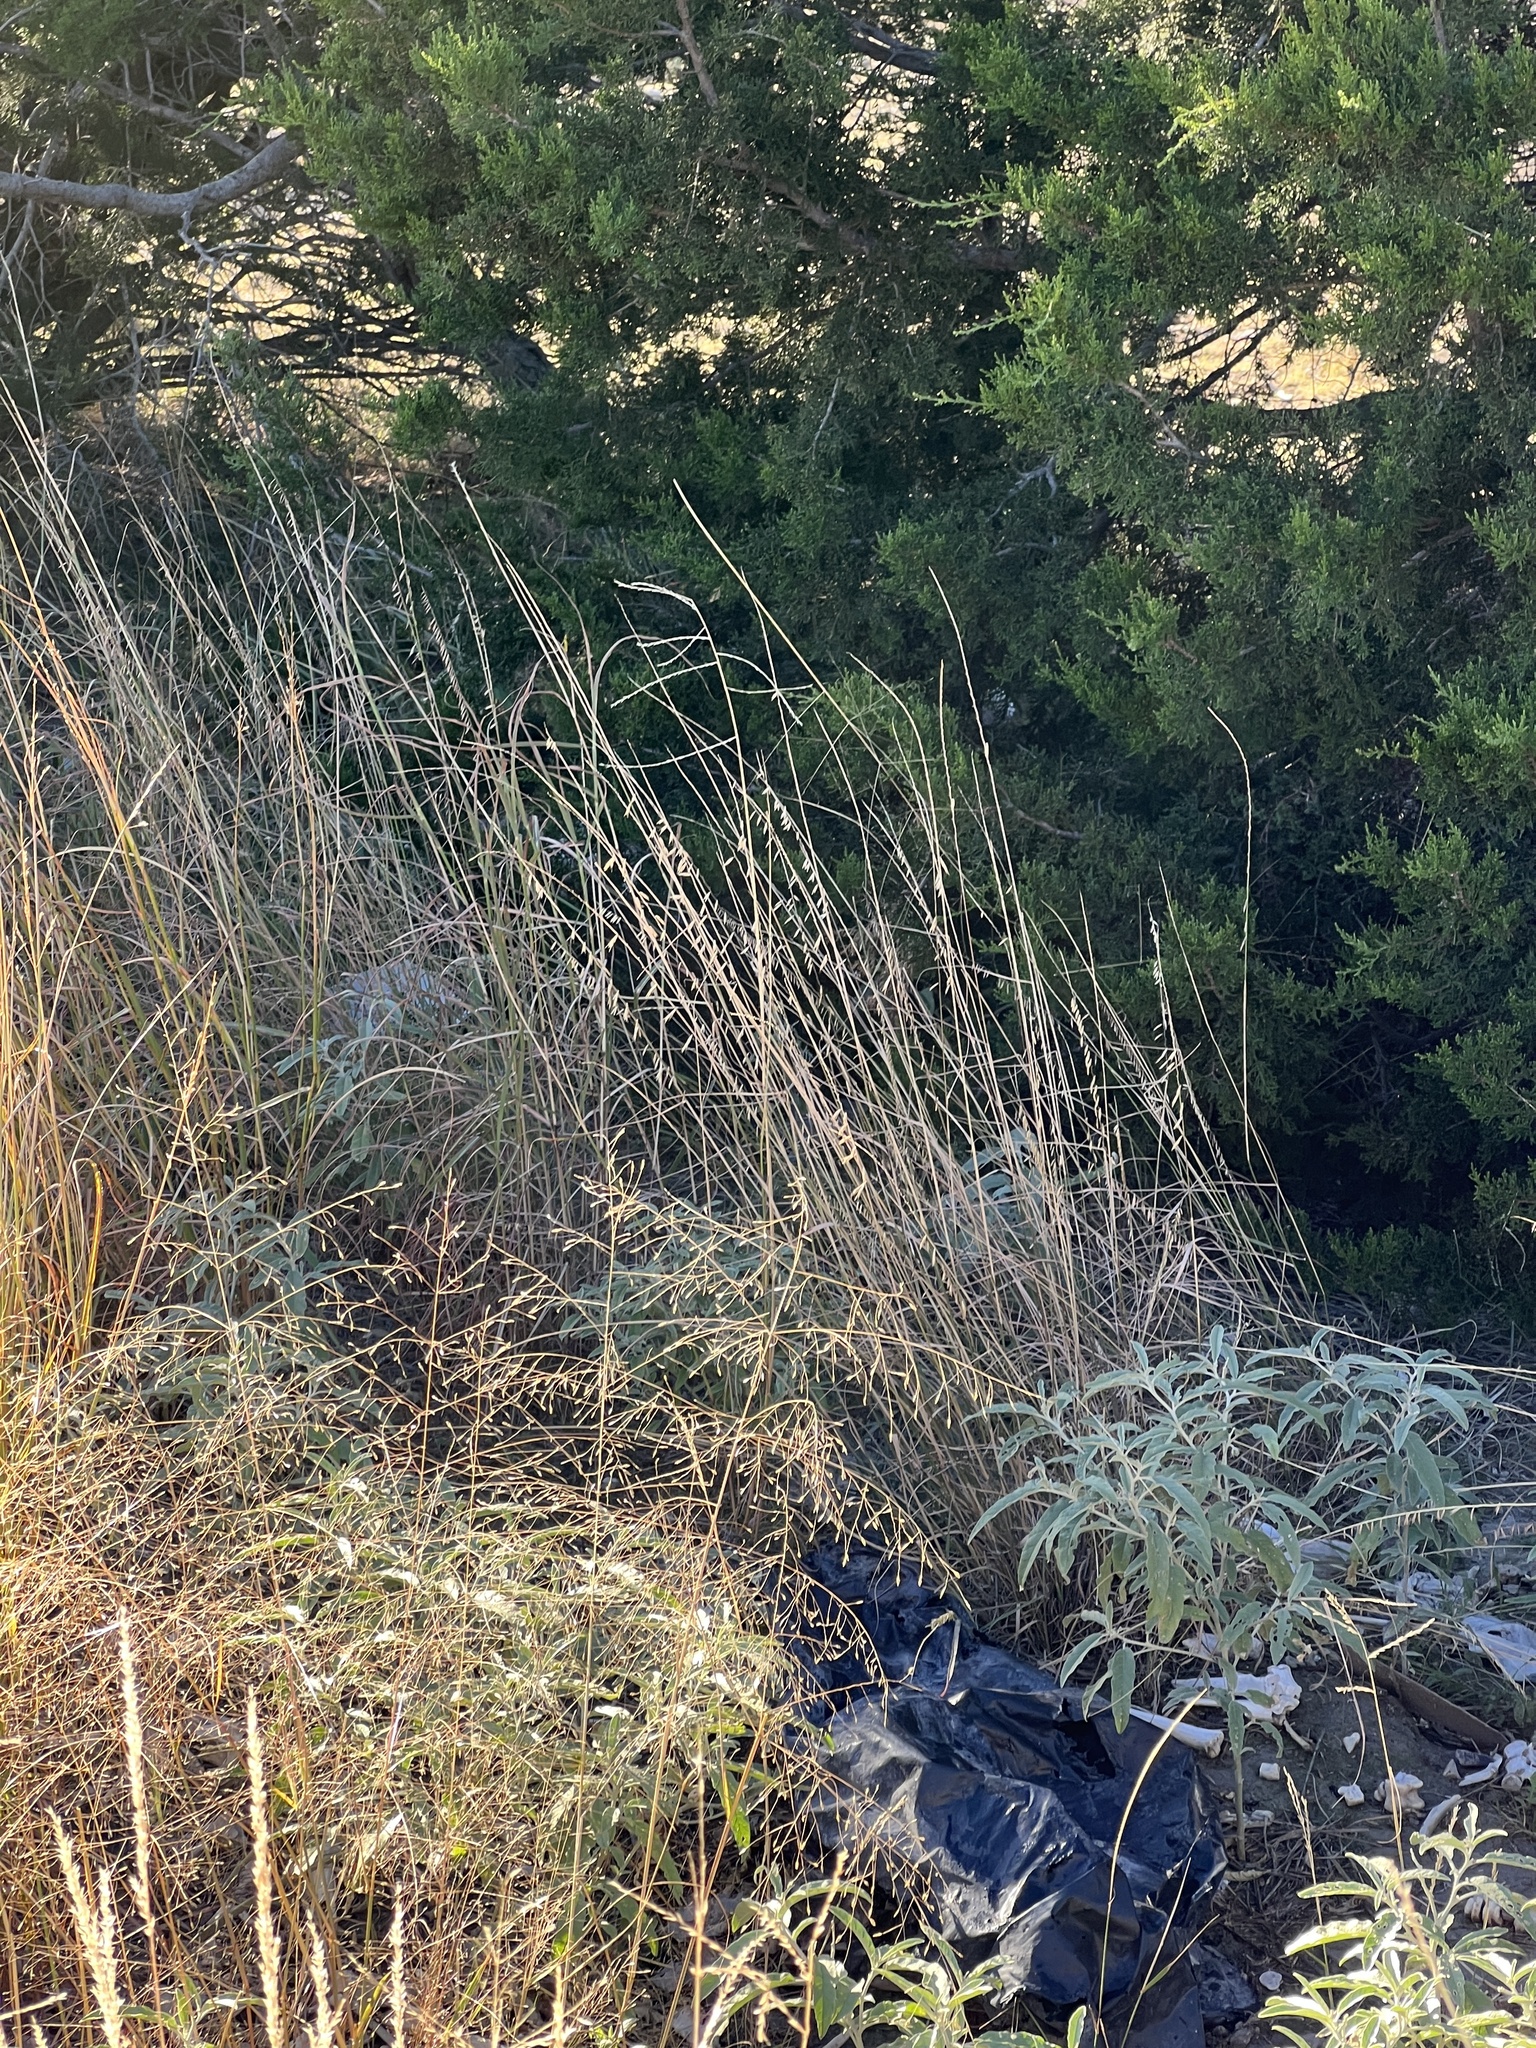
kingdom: Plantae
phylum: Tracheophyta
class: Liliopsida
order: Poales
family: Poaceae
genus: Bouteloua
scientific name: Bouteloua curtipendula
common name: Side-oats grama
